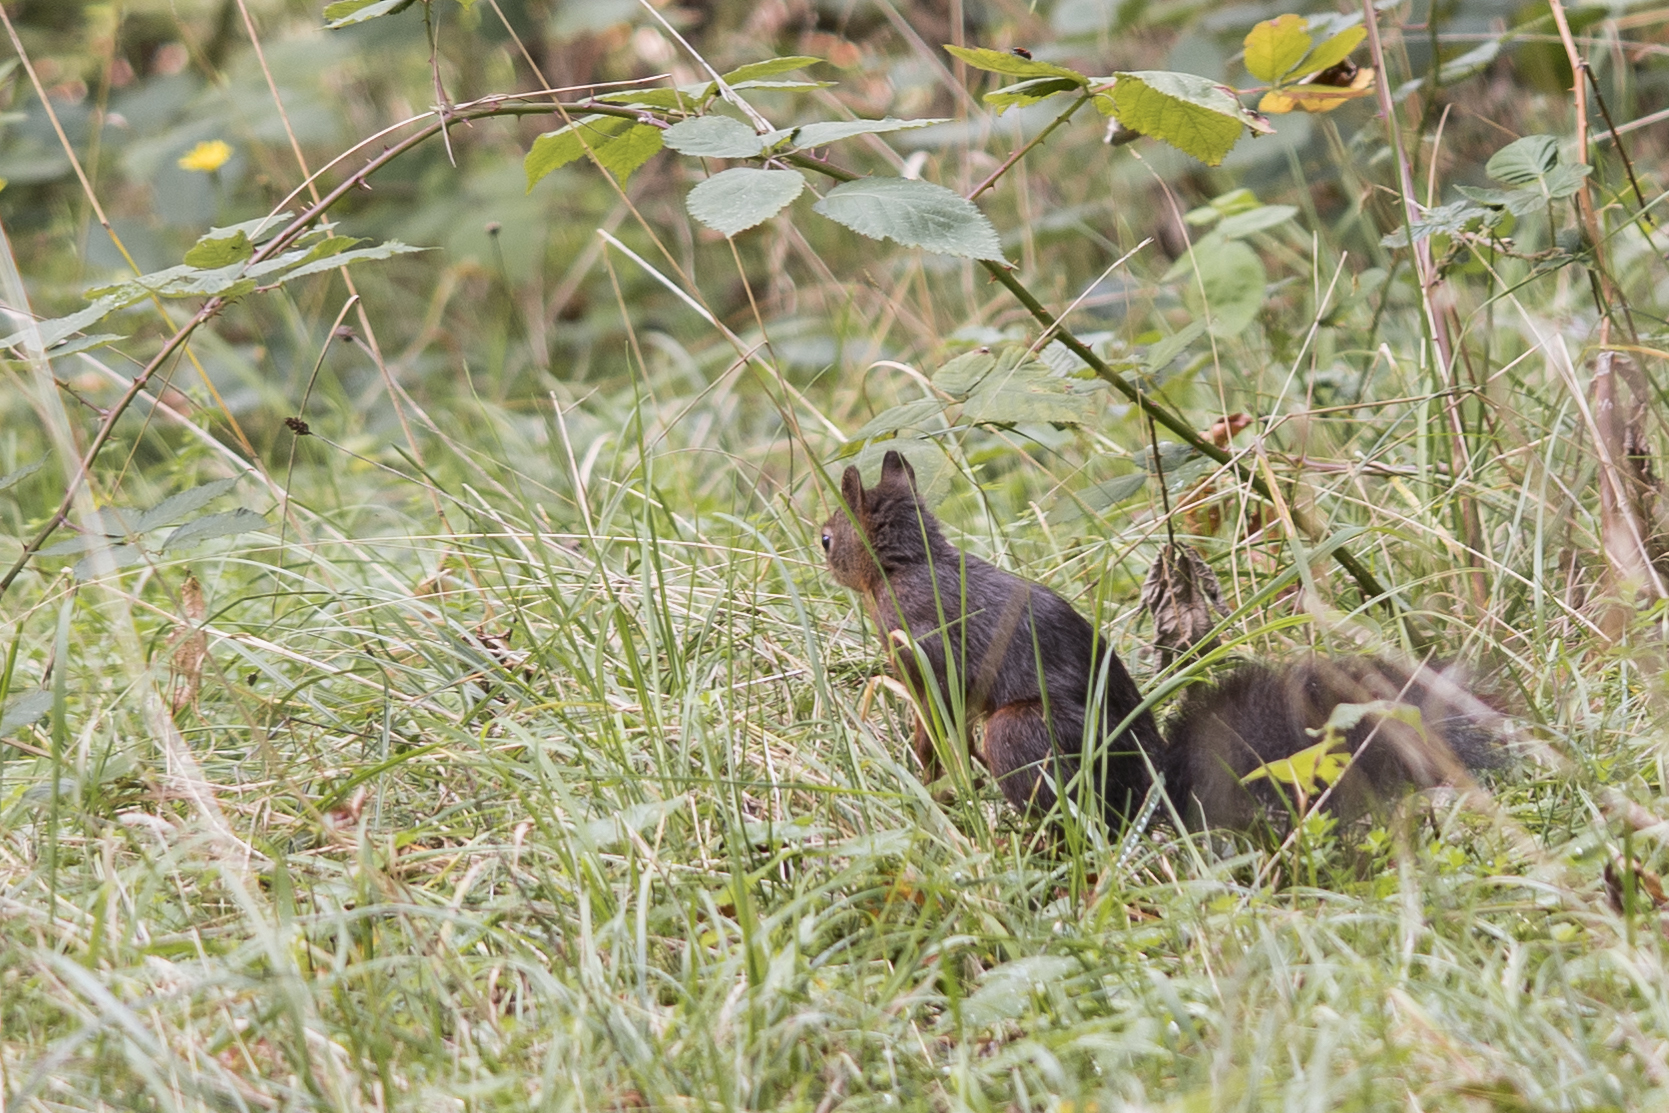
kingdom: Animalia
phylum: Chordata
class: Mammalia
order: Rodentia
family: Sciuridae
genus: Sciurus
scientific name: Sciurus vulgaris
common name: Eurasian red squirrel
